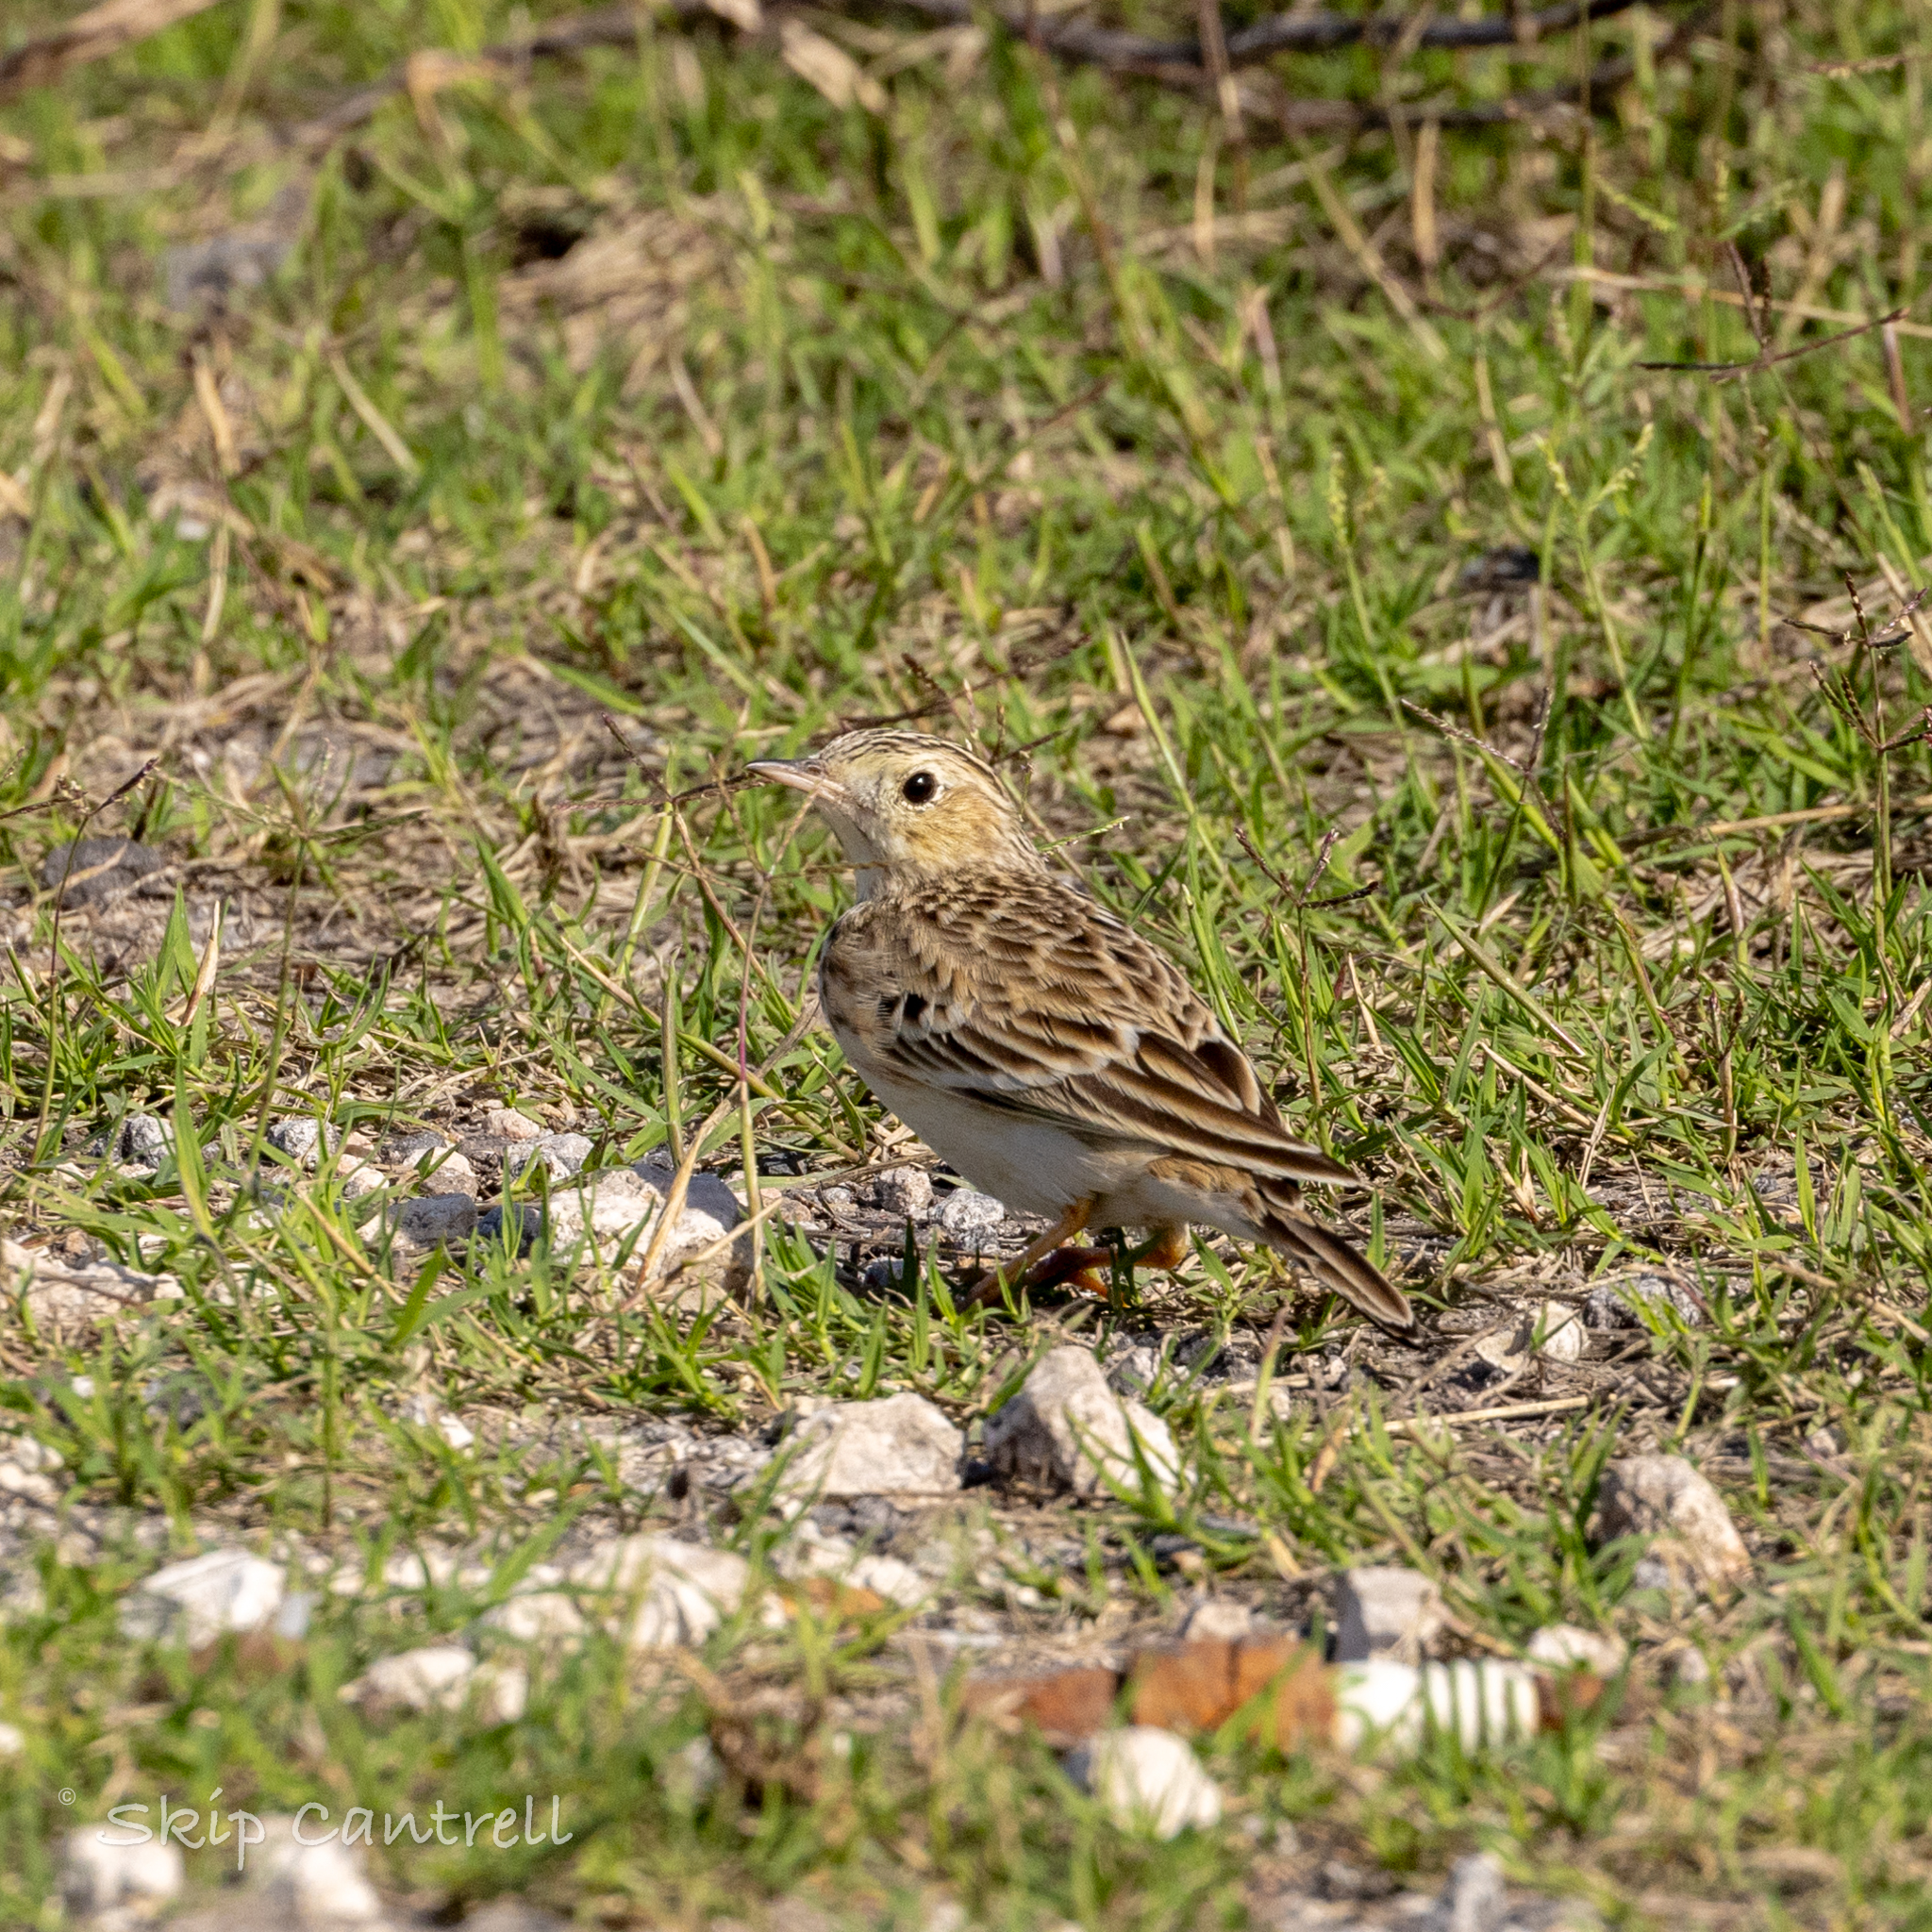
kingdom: Animalia
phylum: Chordata
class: Aves
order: Passeriformes
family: Motacillidae
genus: Anthus
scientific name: Anthus spragueii
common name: Sprague's pipit
